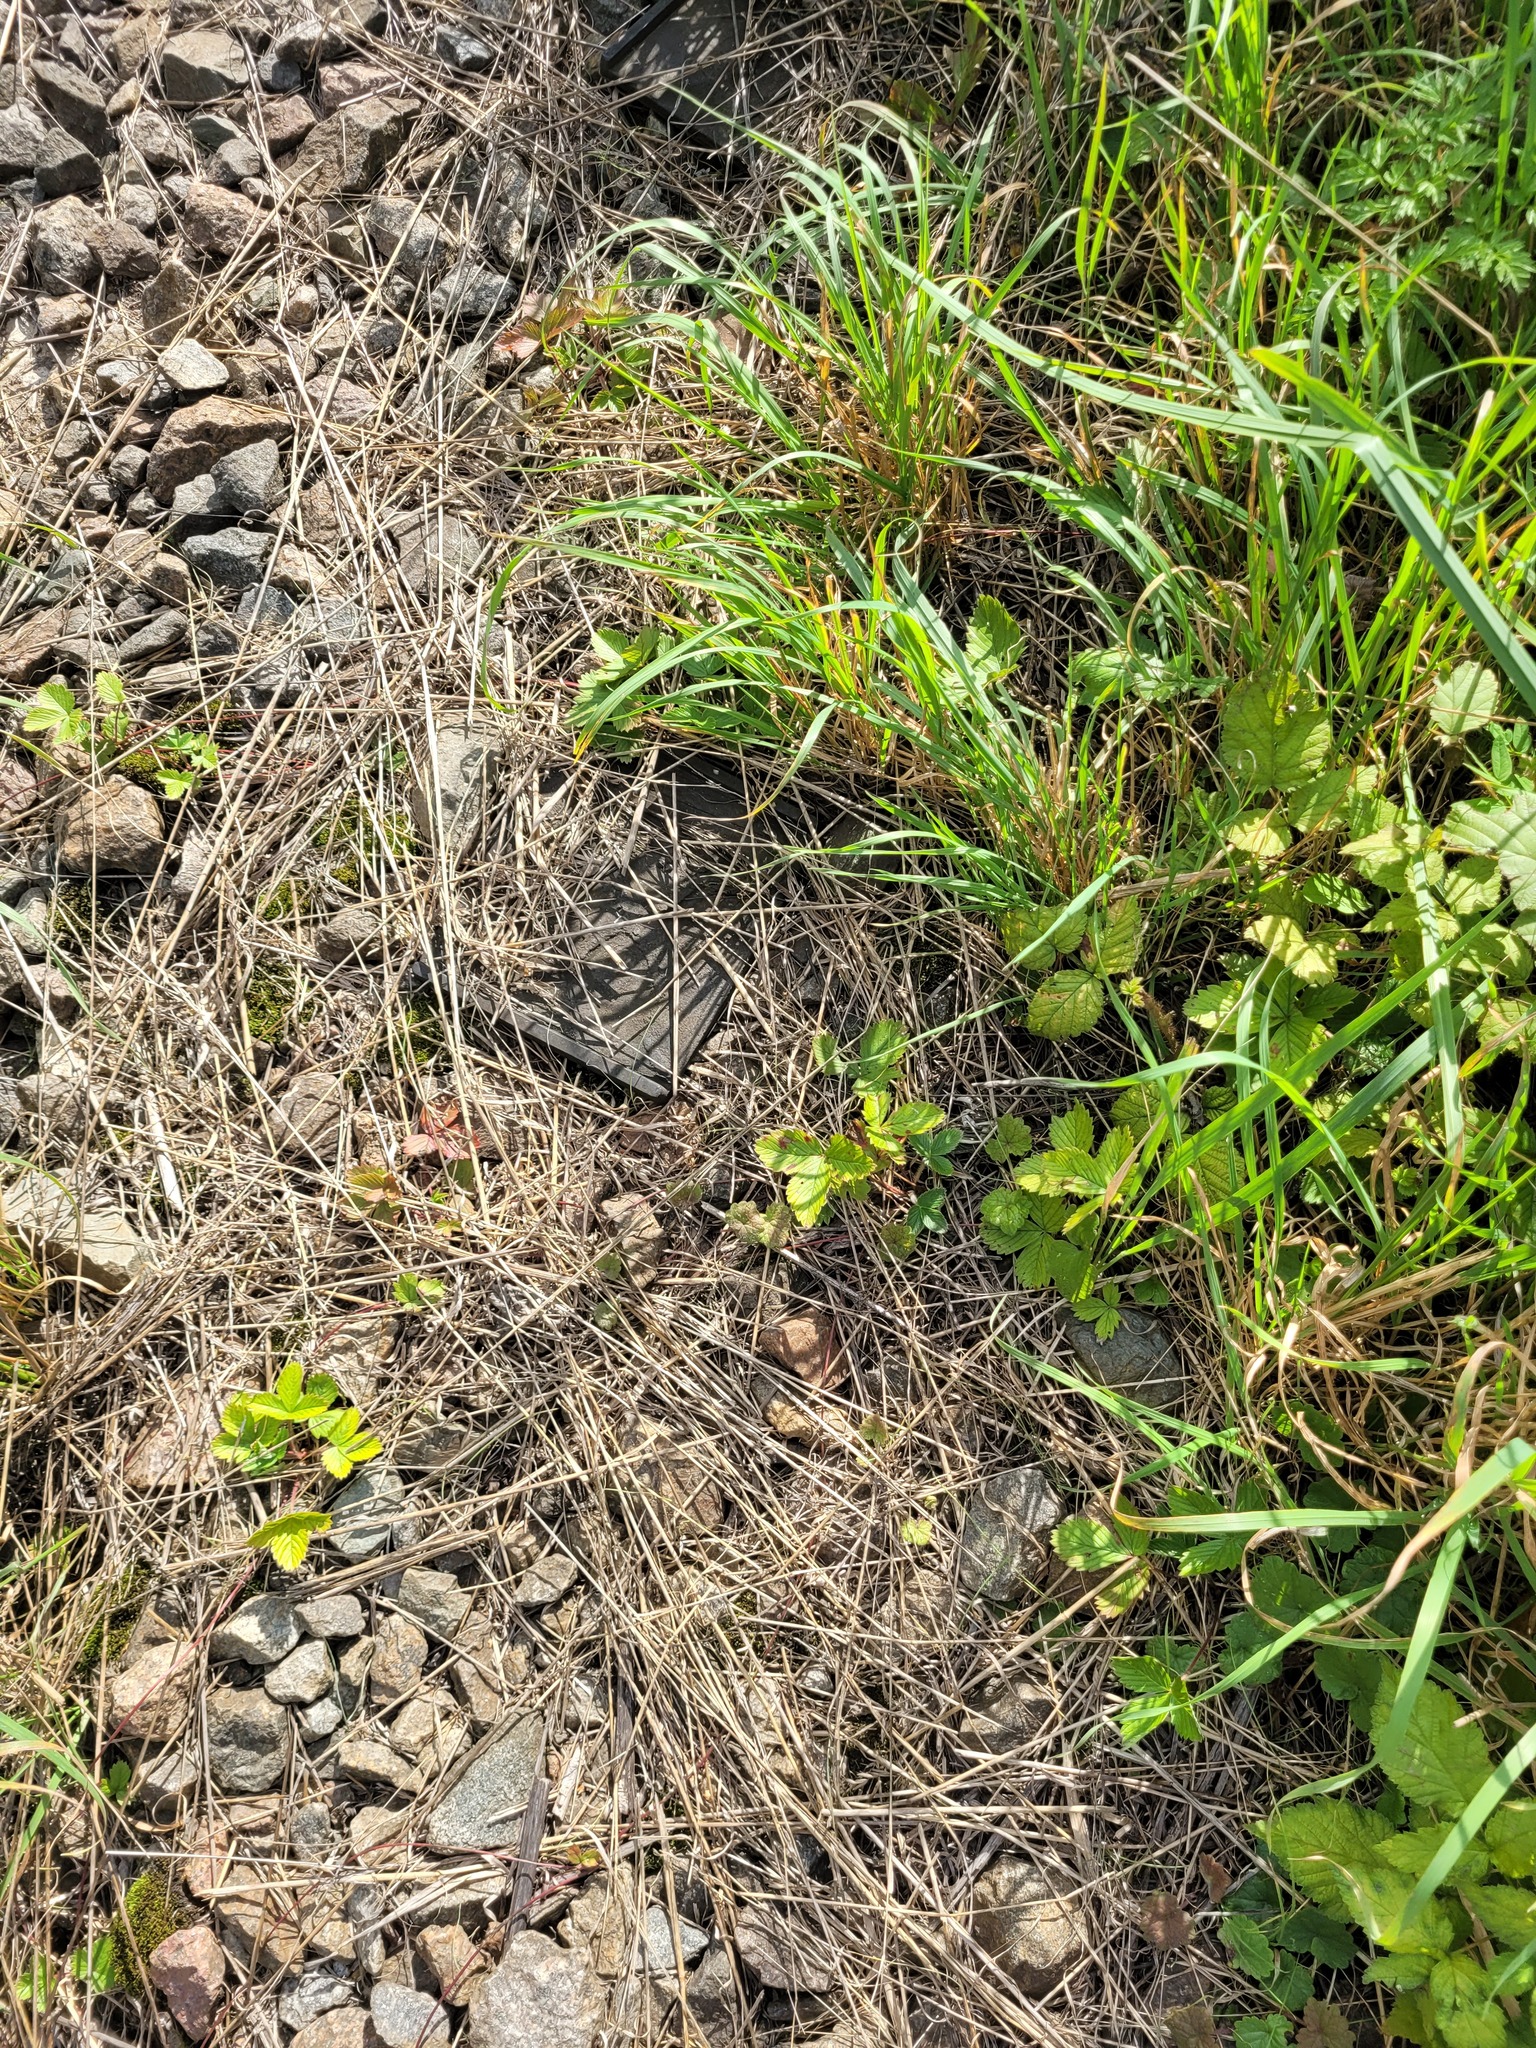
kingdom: Plantae
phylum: Tracheophyta
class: Magnoliopsida
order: Rosales
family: Rosaceae
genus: Fragaria
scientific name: Fragaria vesca
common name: Wild strawberry
